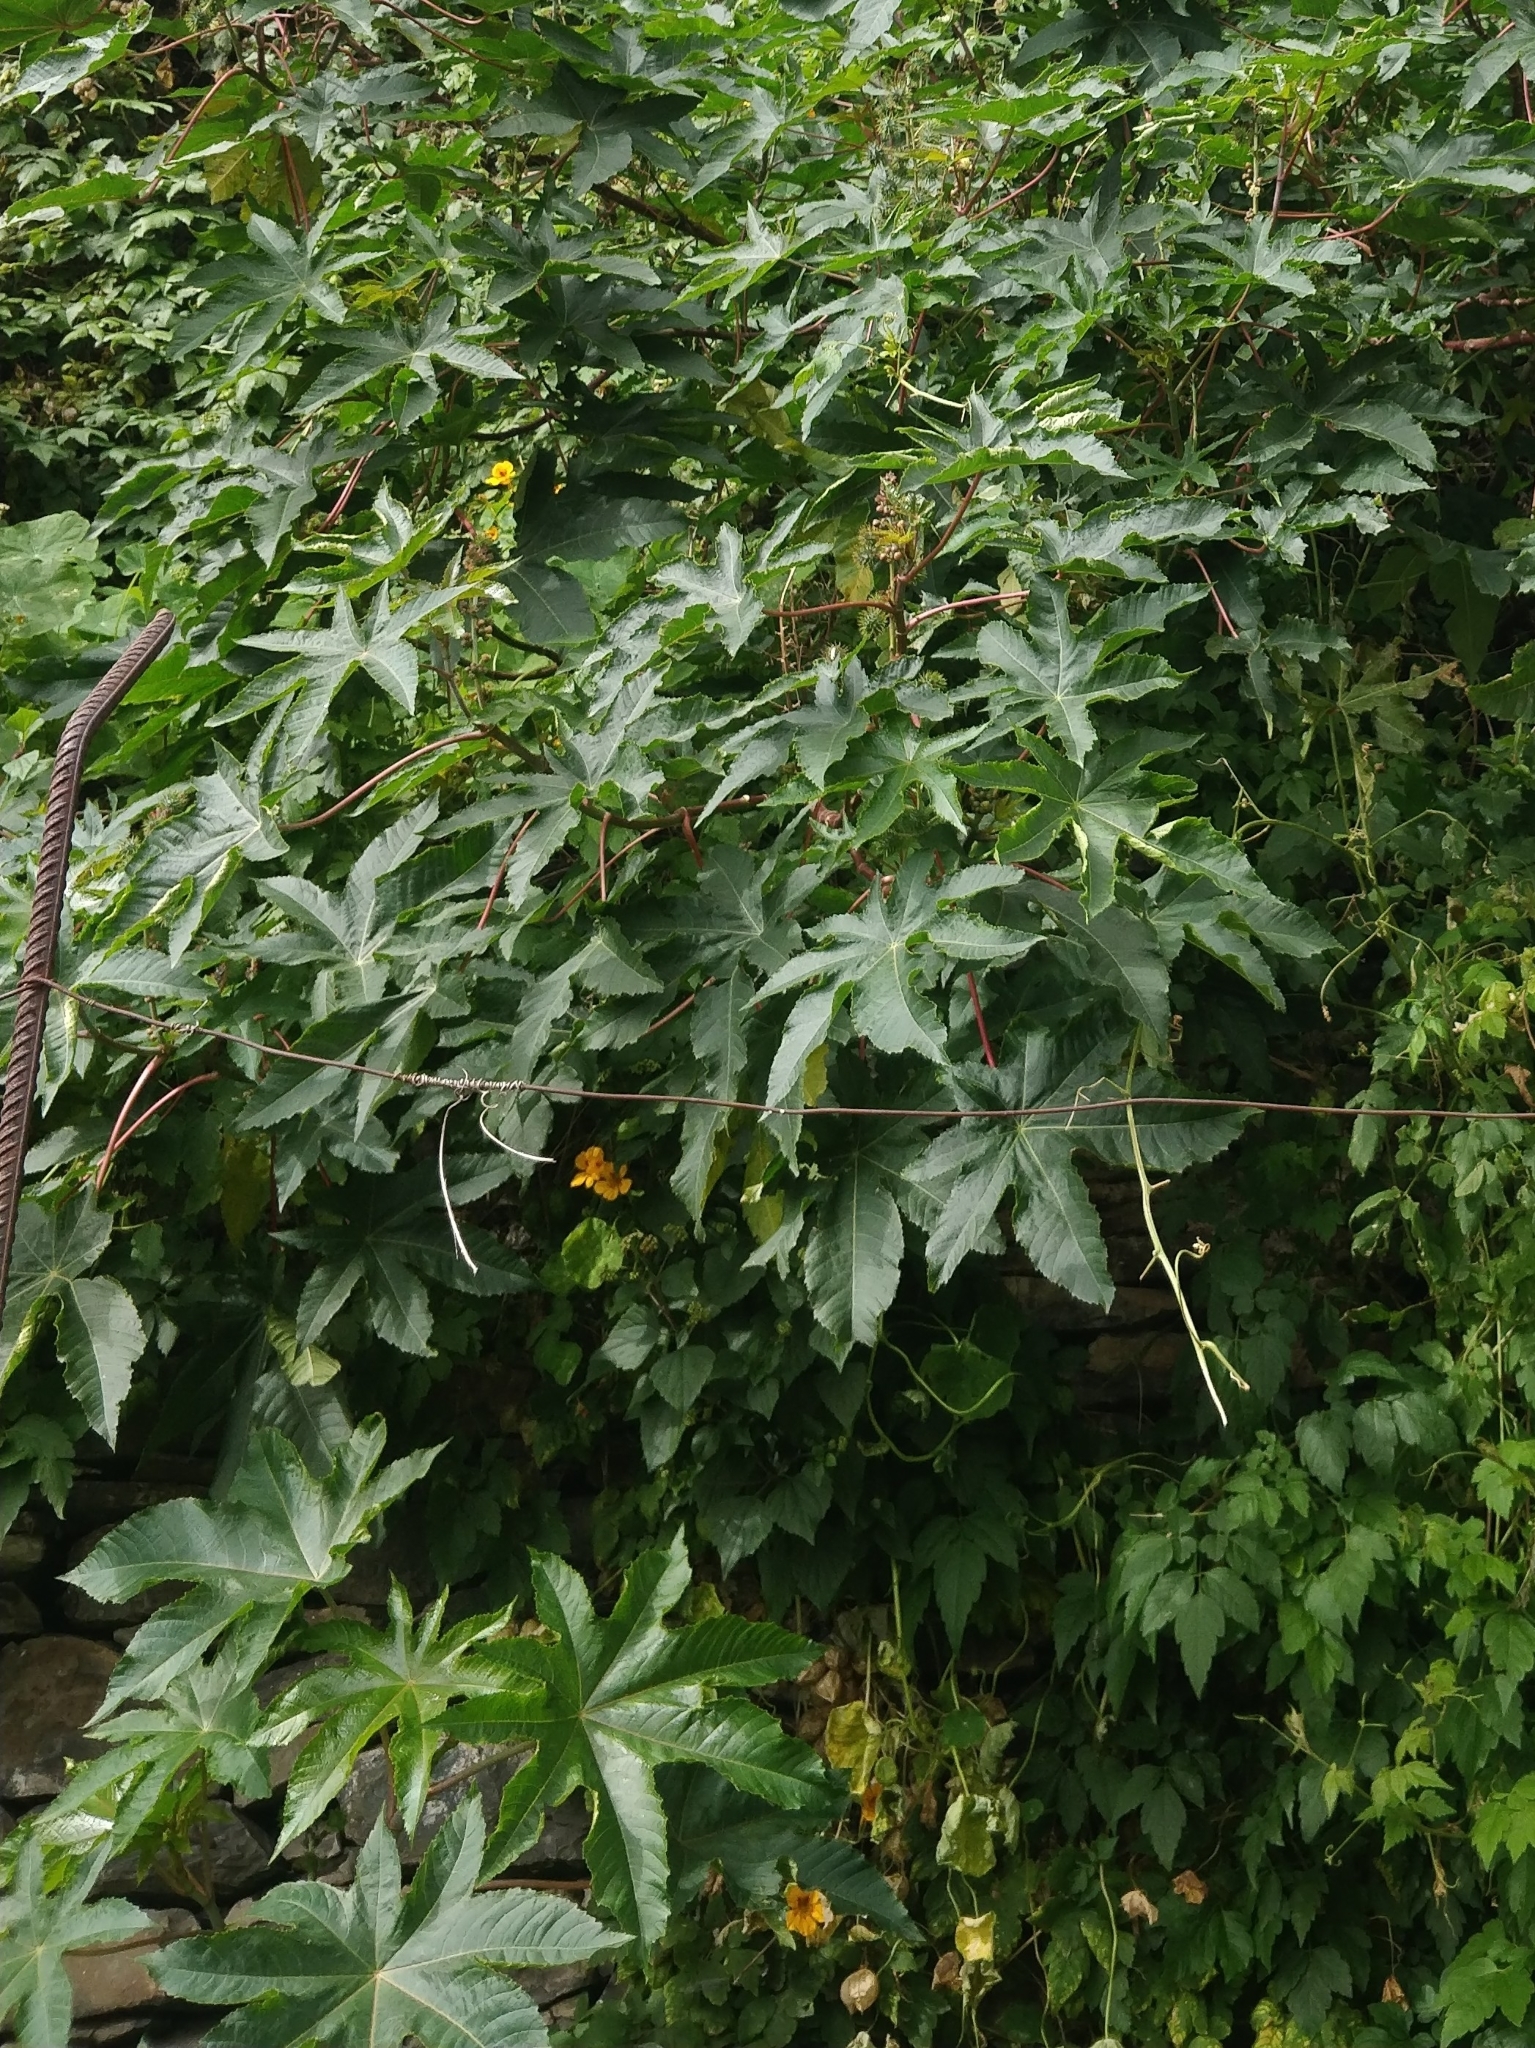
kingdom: Plantae
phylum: Tracheophyta
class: Magnoliopsida
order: Malpighiales
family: Euphorbiaceae
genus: Ricinus
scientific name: Ricinus communis
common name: Castor-oil-plant
